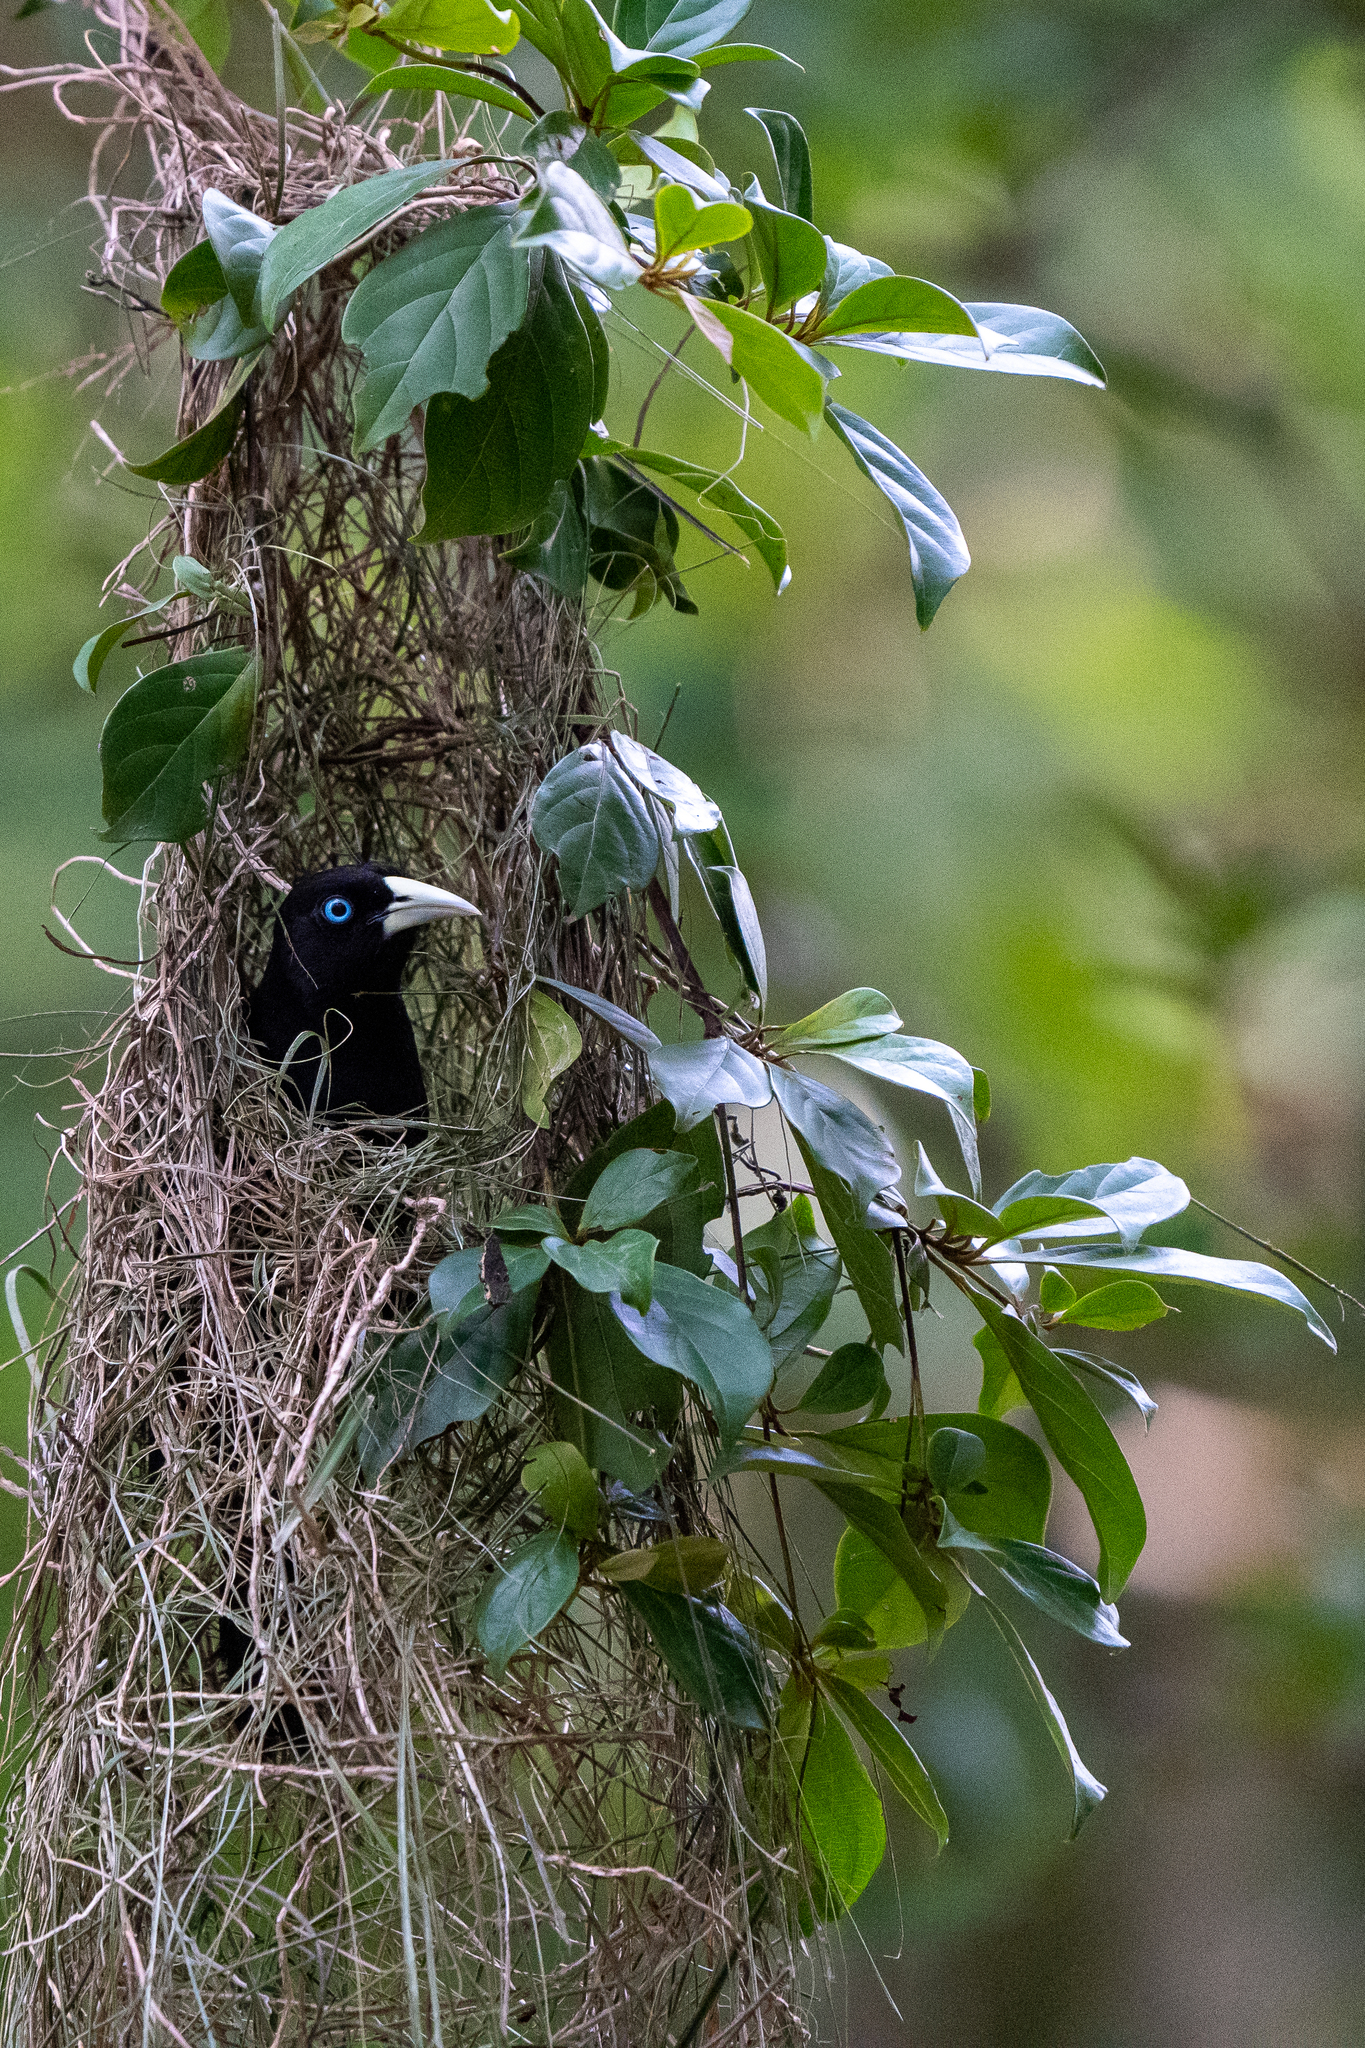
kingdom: Animalia
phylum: Chordata
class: Aves
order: Passeriformes
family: Icteridae
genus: Cacicus
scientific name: Cacicus uropygialis
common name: Scarlet-rumped cacique
